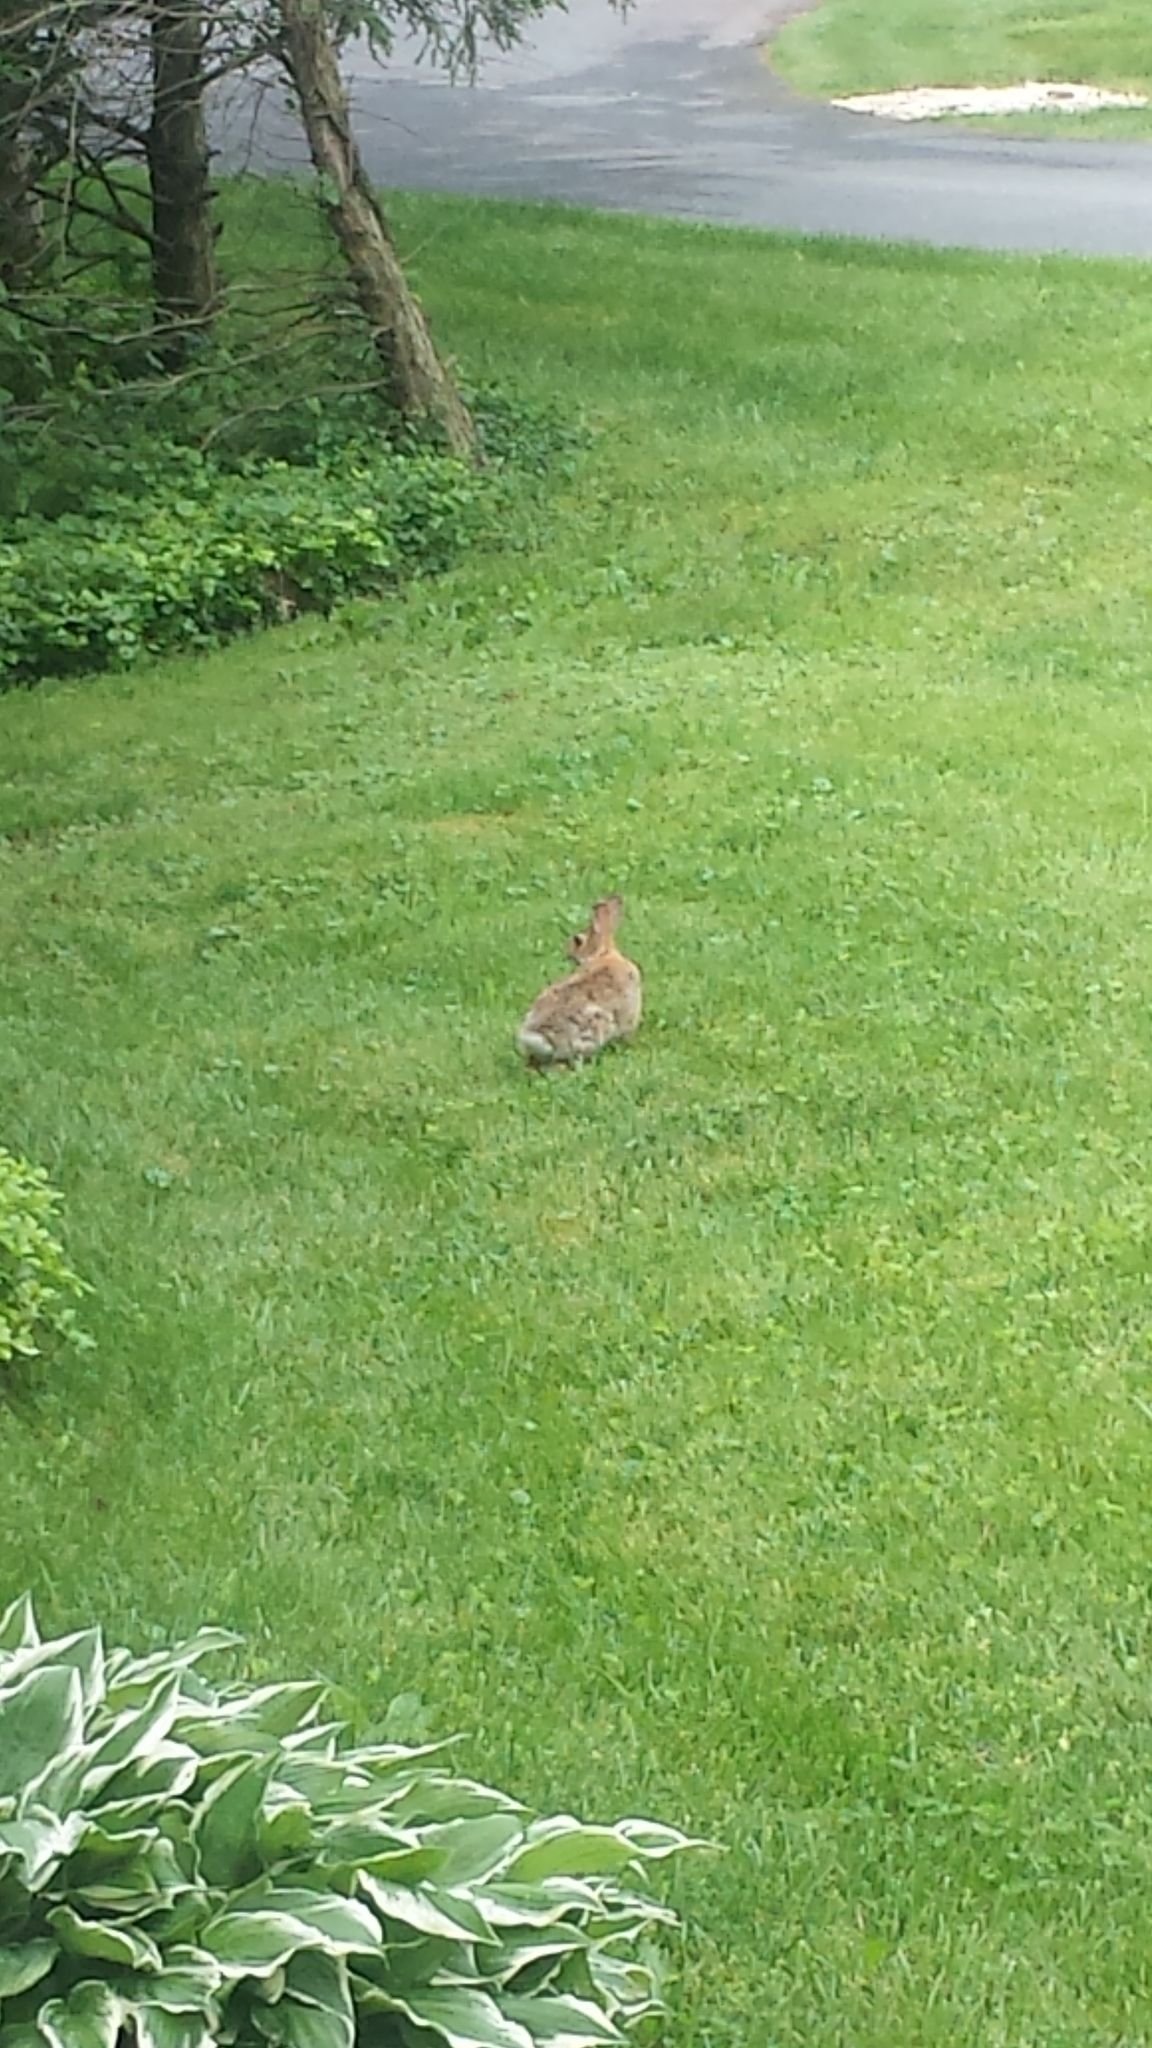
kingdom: Animalia
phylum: Chordata
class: Mammalia
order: Lagomorpha
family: Leporidae
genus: Sylvilagus
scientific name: Sylvilagus floridanus
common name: Eastern cottontail
